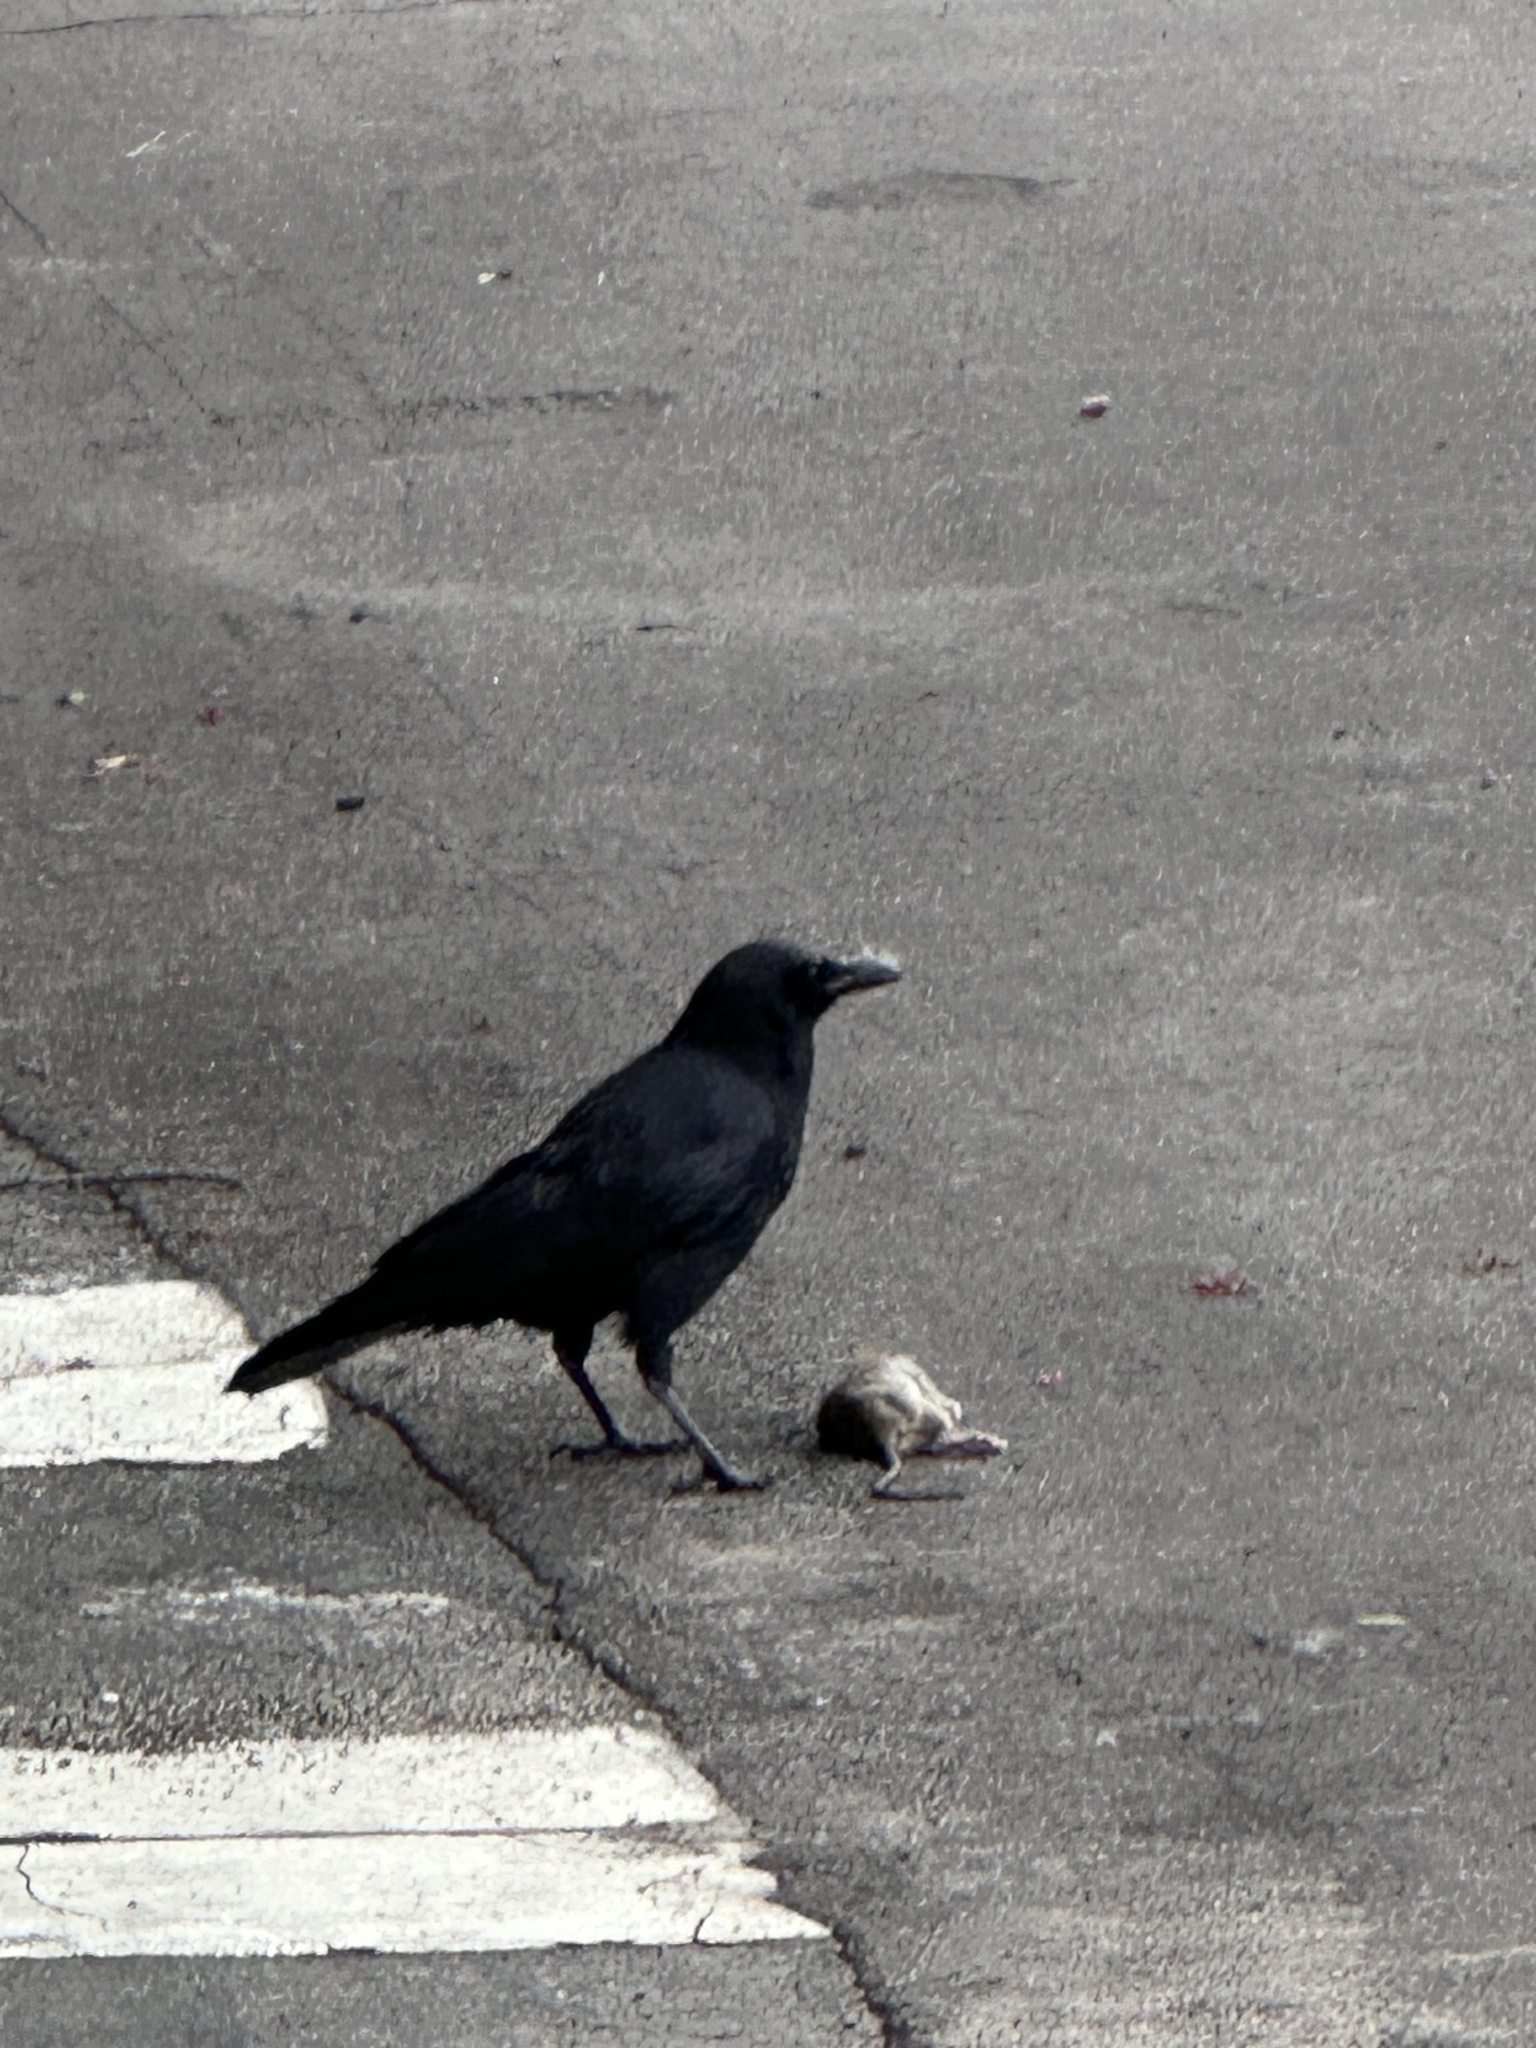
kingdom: Animalia
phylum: Chordata
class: Aves
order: Passeriformes
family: Corvidae
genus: Corvus
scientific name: Corvus brachyrhynchos
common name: American crow
